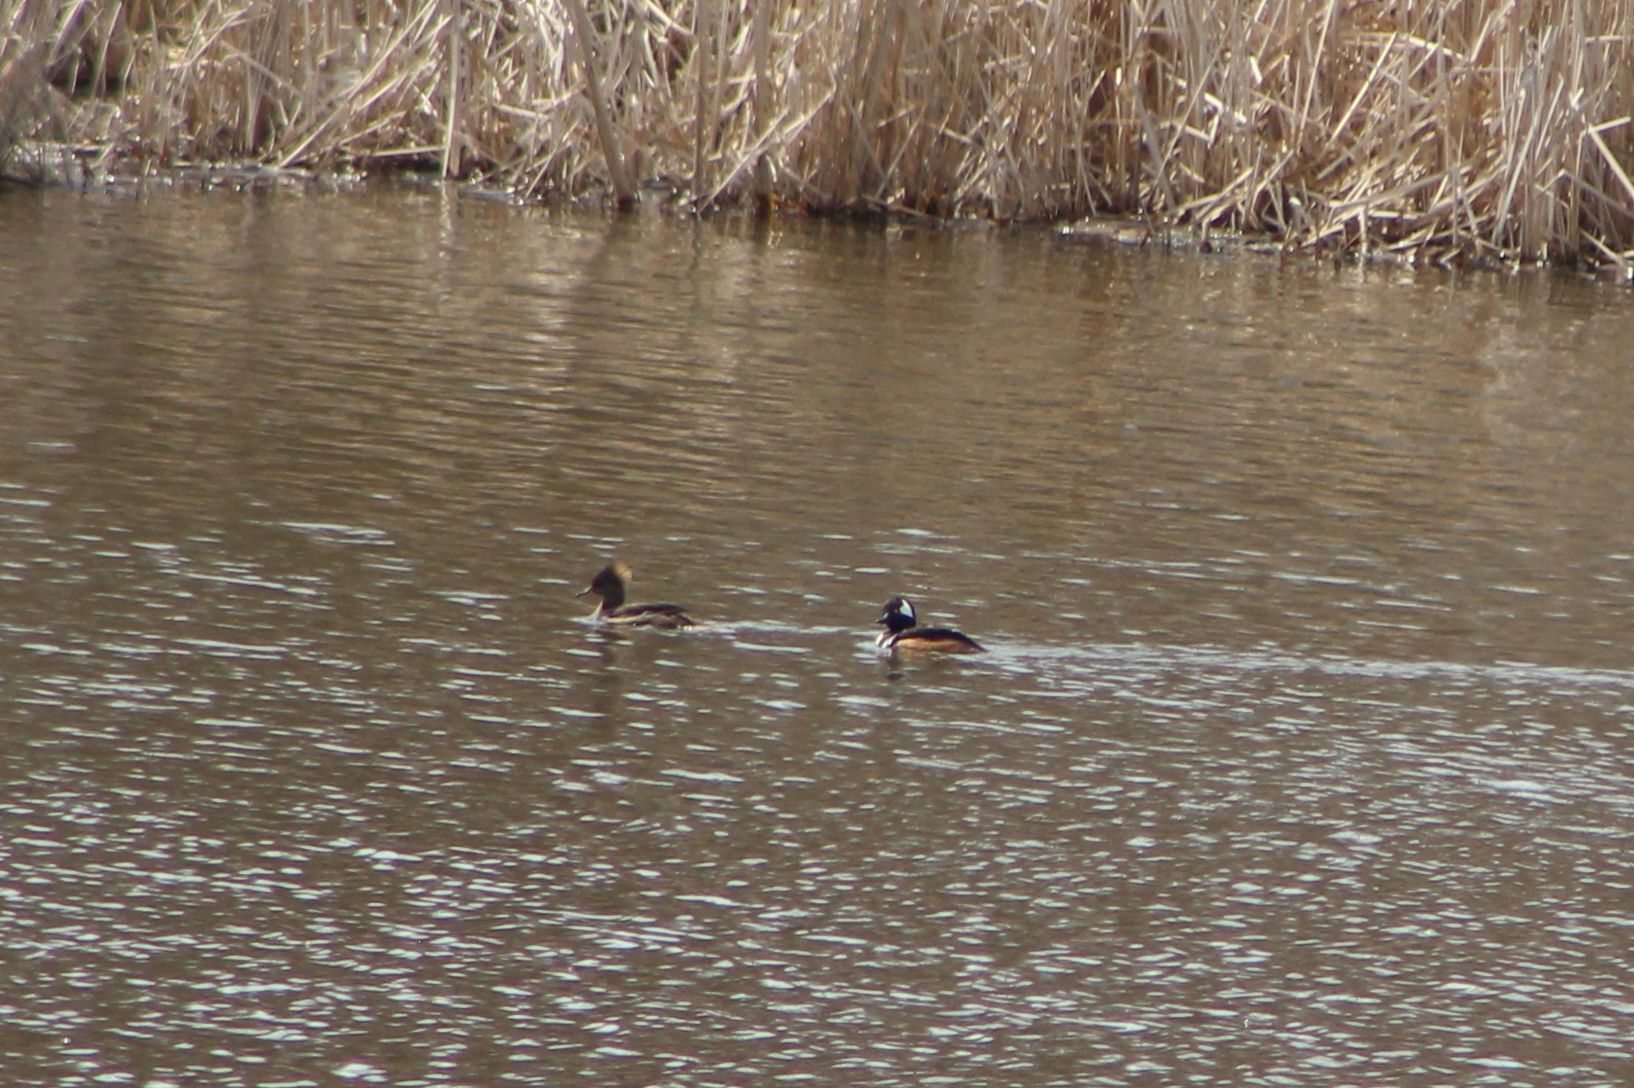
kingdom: Animalia
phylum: Chordata
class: Aves
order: Anseriformes
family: Anatidae
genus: Lophodytes
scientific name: Lophodytes cucullatus
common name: Hooded merganser
